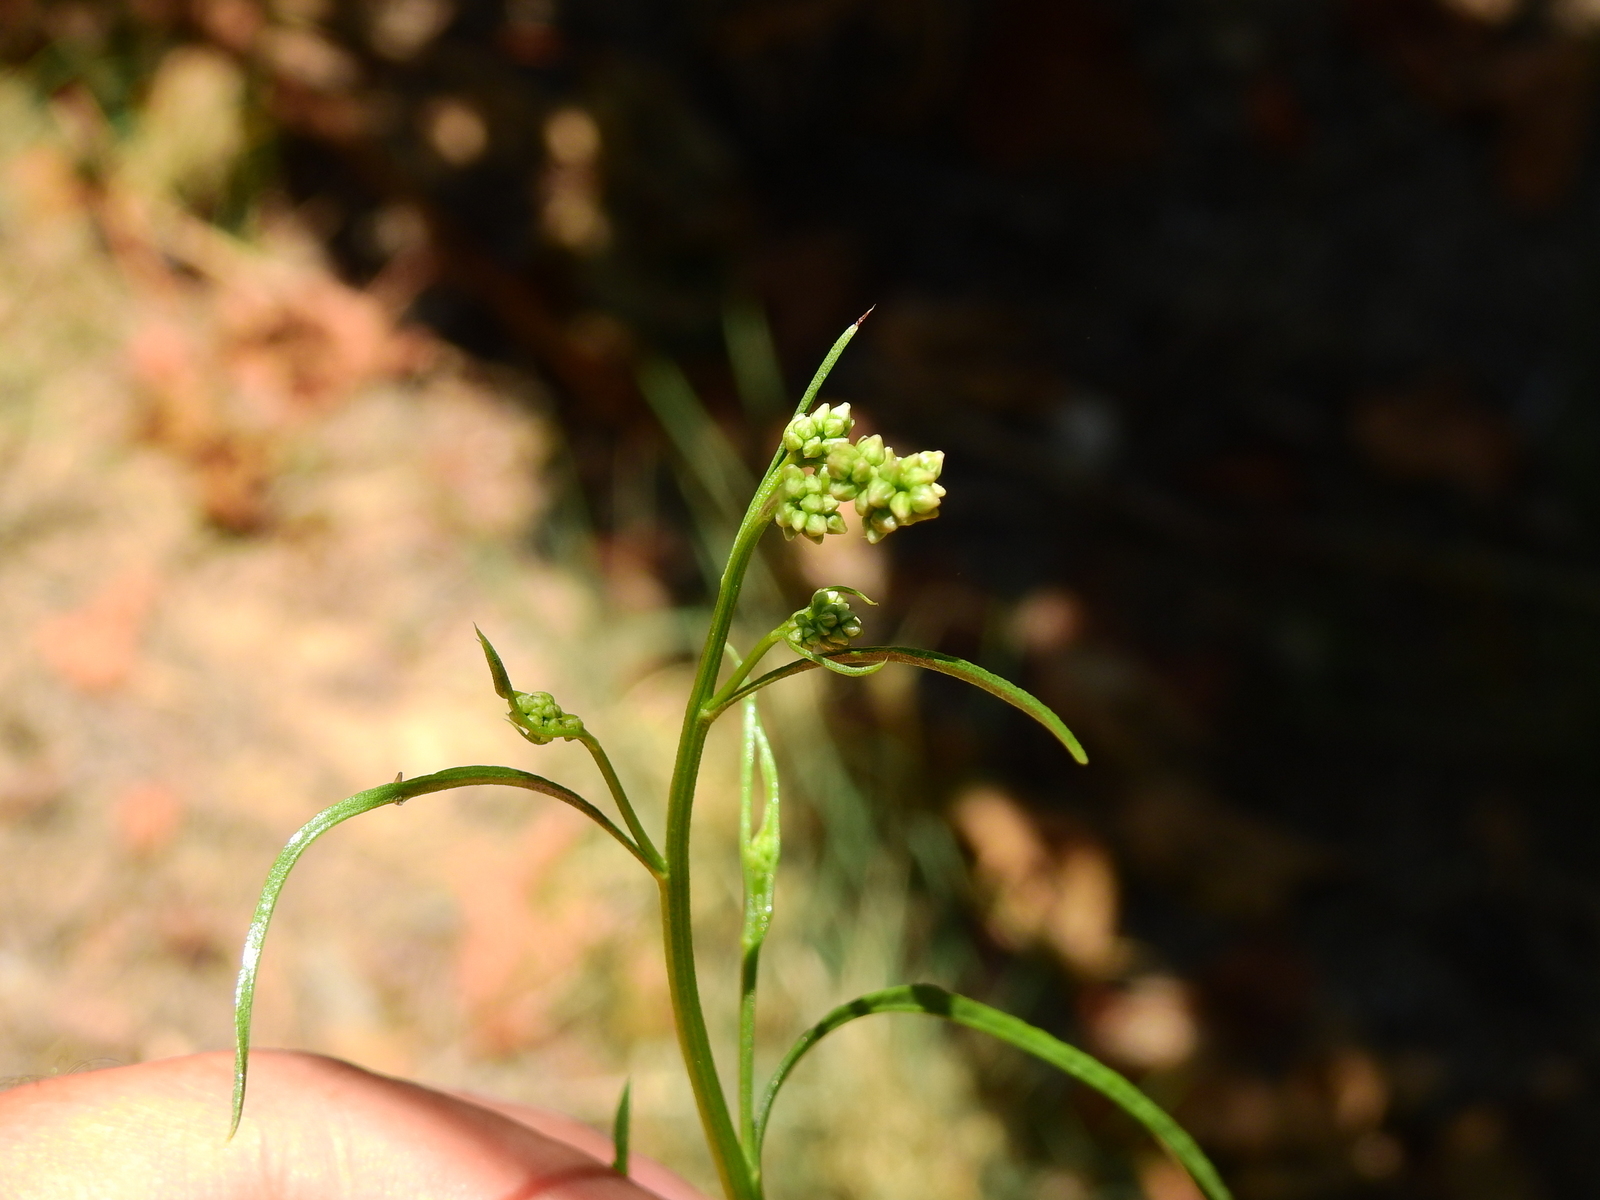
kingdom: Plantae
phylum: Tracheophyta
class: Magnoliopsida
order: Asterales
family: Asteraceae
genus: Baccharis
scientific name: Baccharis salicifolia
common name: Sticky baccharis
